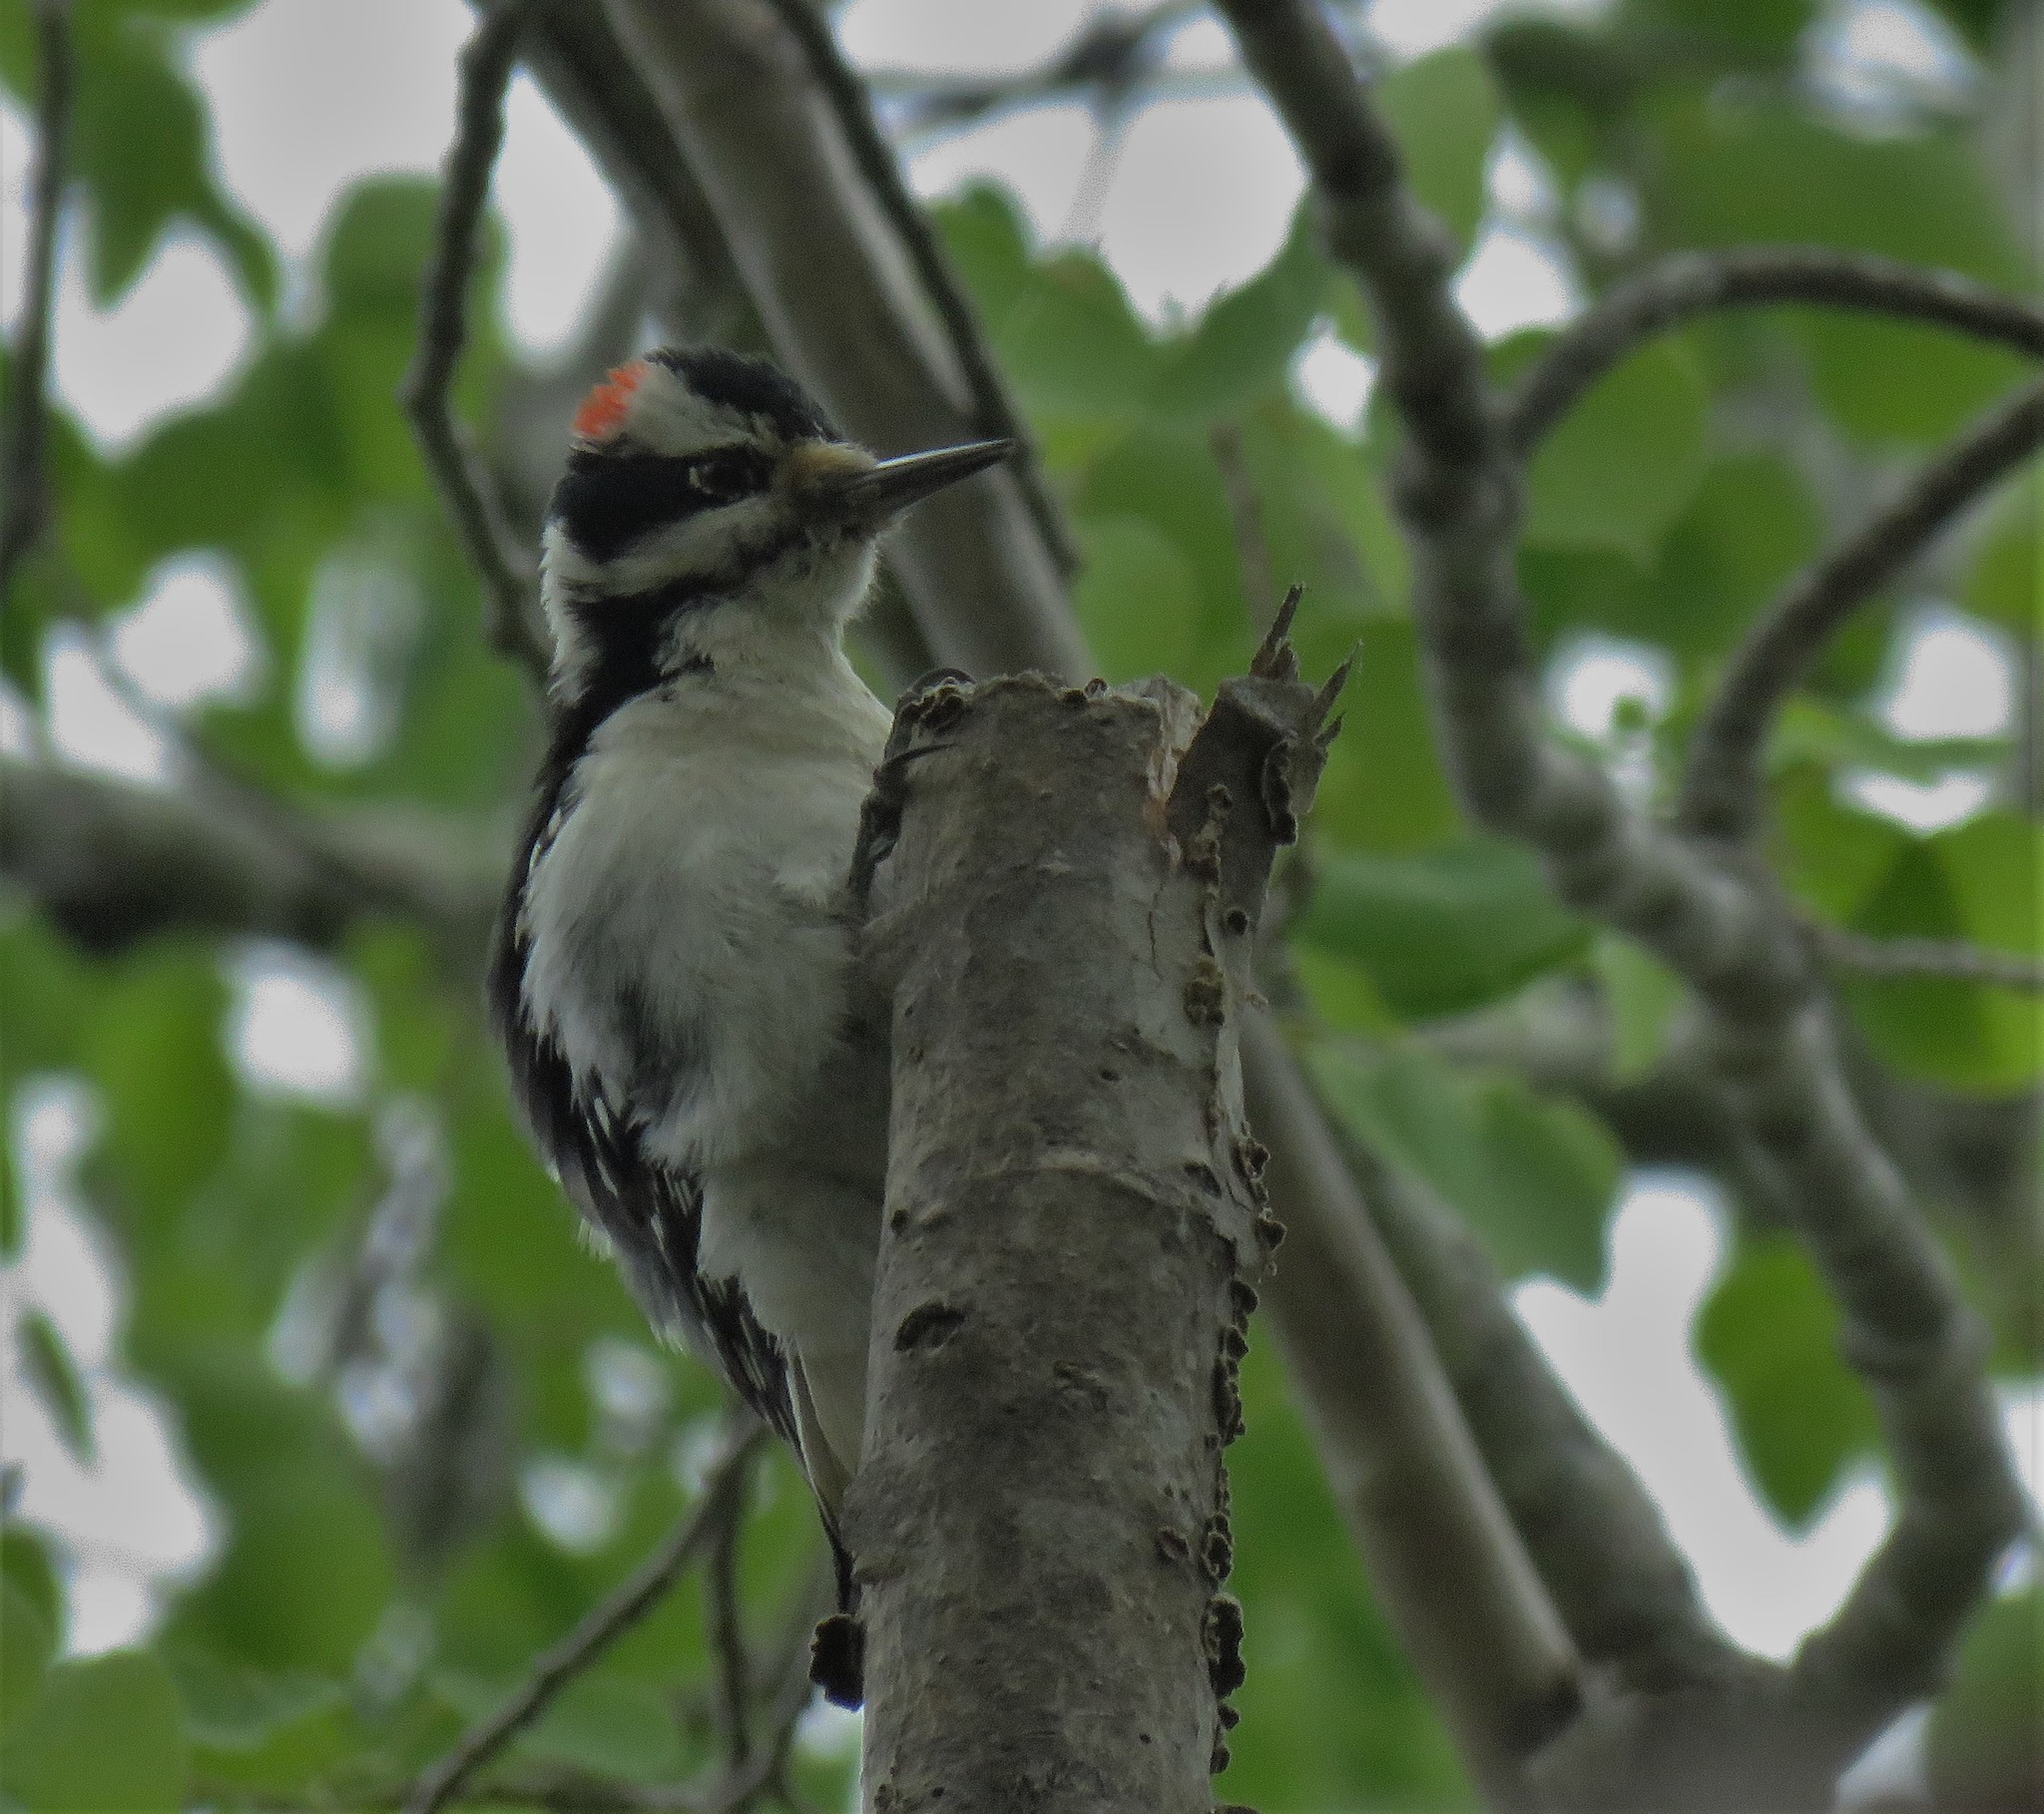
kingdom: Animalia
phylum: Chordata
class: Aves
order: Piciformes
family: Picidae
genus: Leuconotopicus
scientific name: Leuconotopicus villosus
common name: Hairy woodpecker
